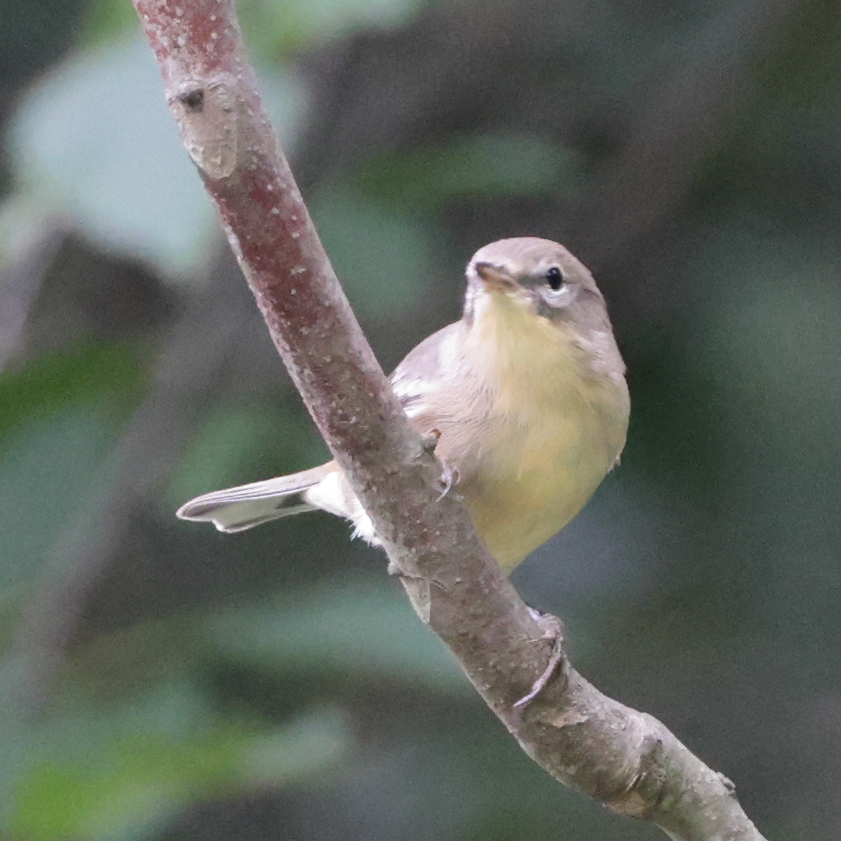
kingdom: Animalia
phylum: Chordata
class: Aves
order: Passeriformes
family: Parulidae
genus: Geothlypis
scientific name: Geothlypis trichas
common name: Common yellowthroat
